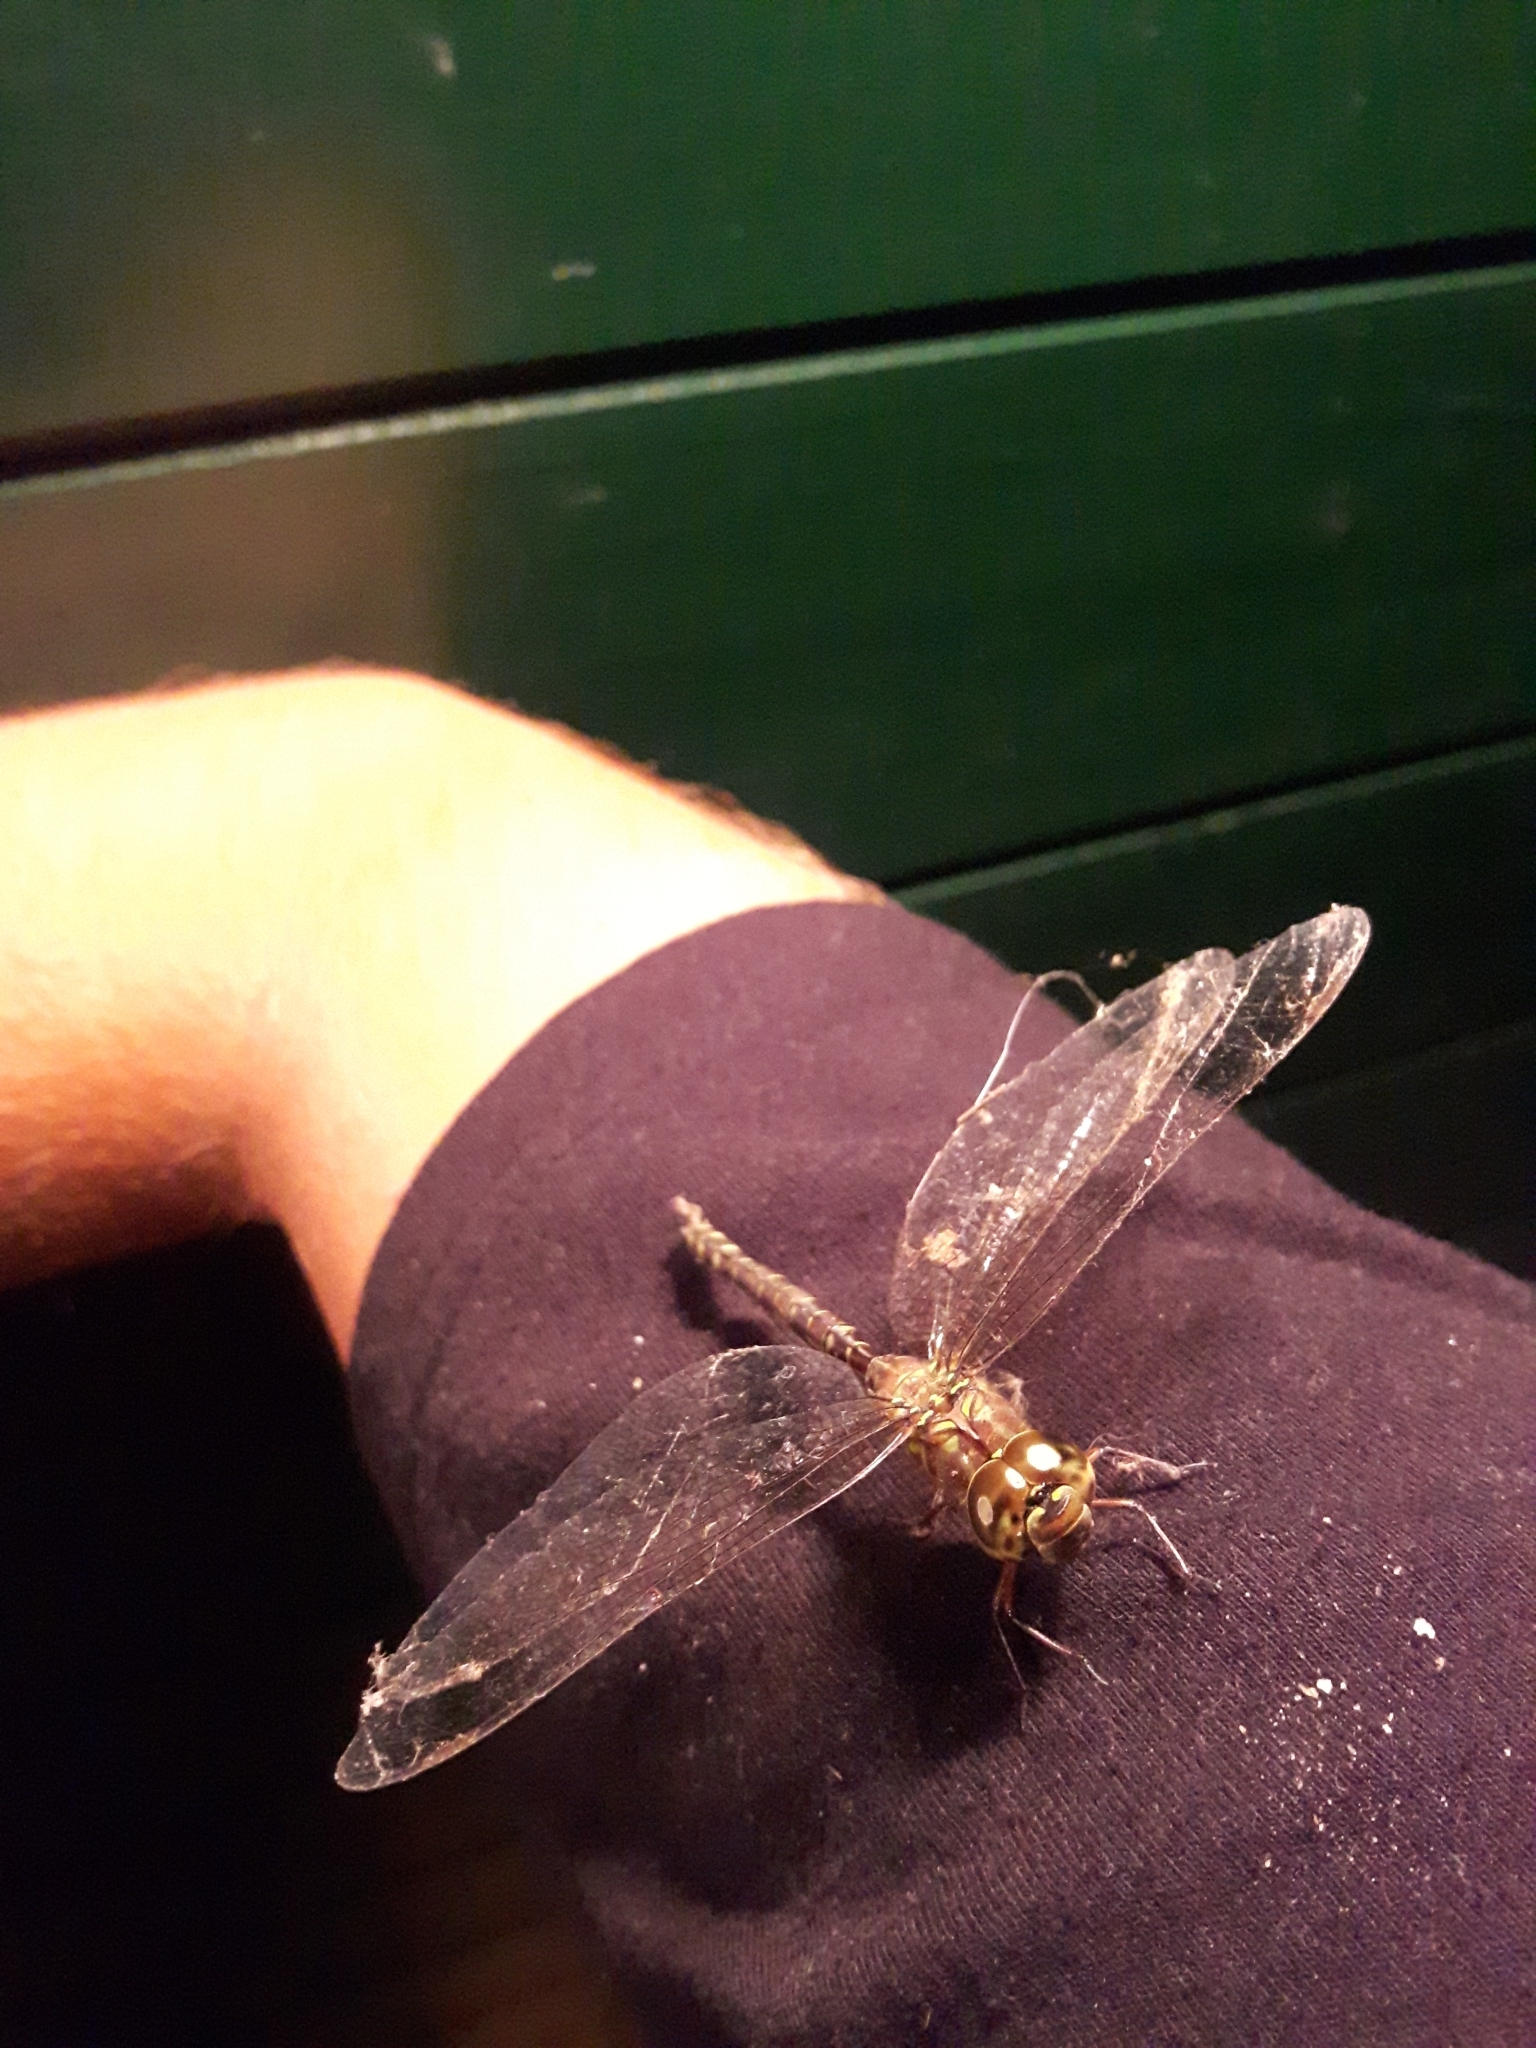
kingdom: Animalia
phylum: Arthropoda
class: Insecta
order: Odonata
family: Aeshnidae
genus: Aeshna
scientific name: Aeshna umbrosa
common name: Shadow darner
